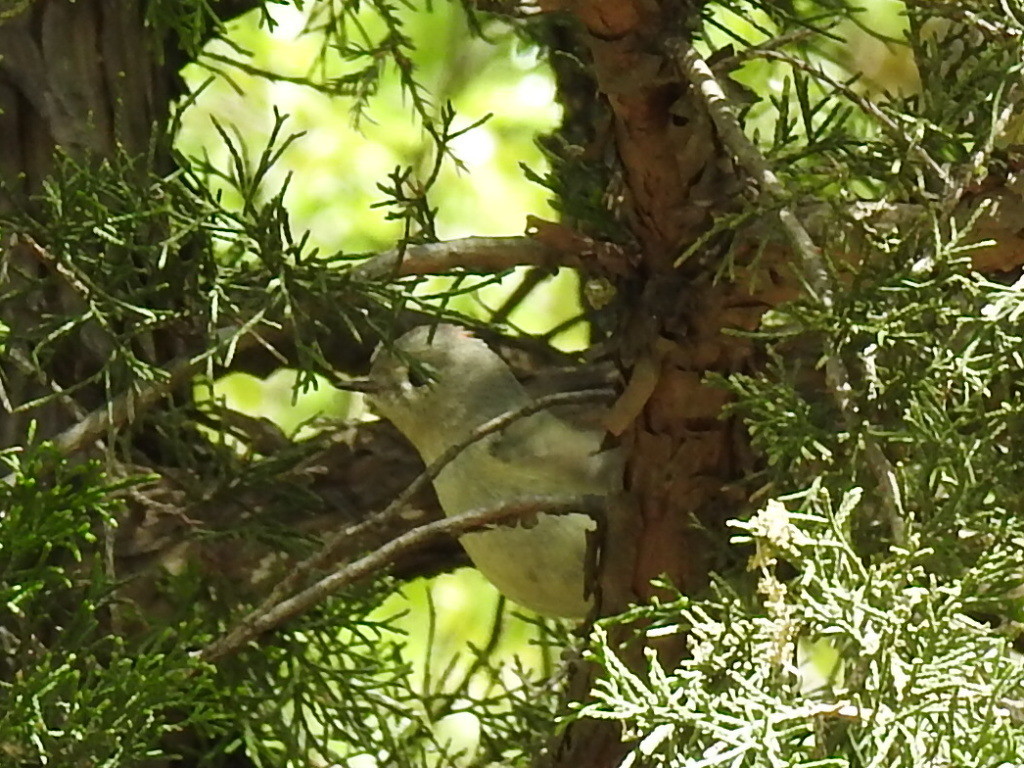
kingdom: Animalia
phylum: Chordata
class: Aves
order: Passeriformes
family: Regulidae
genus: Regulus
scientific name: Regulus calendula
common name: Ruby-crowned kinglet
